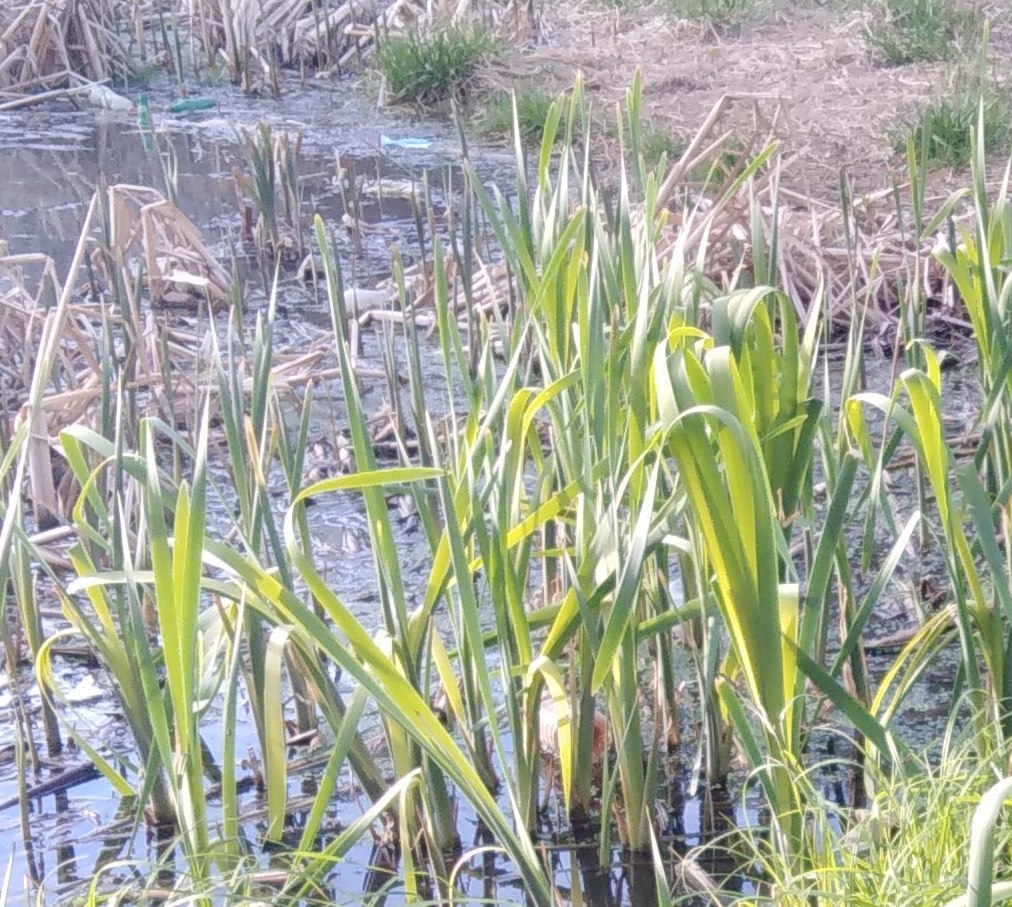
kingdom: Plantae
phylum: Tracheophyta
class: Liliopsida
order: Poales
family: Typhaceae
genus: Typha
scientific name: Typha latifolia
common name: Broadleaf cattail
